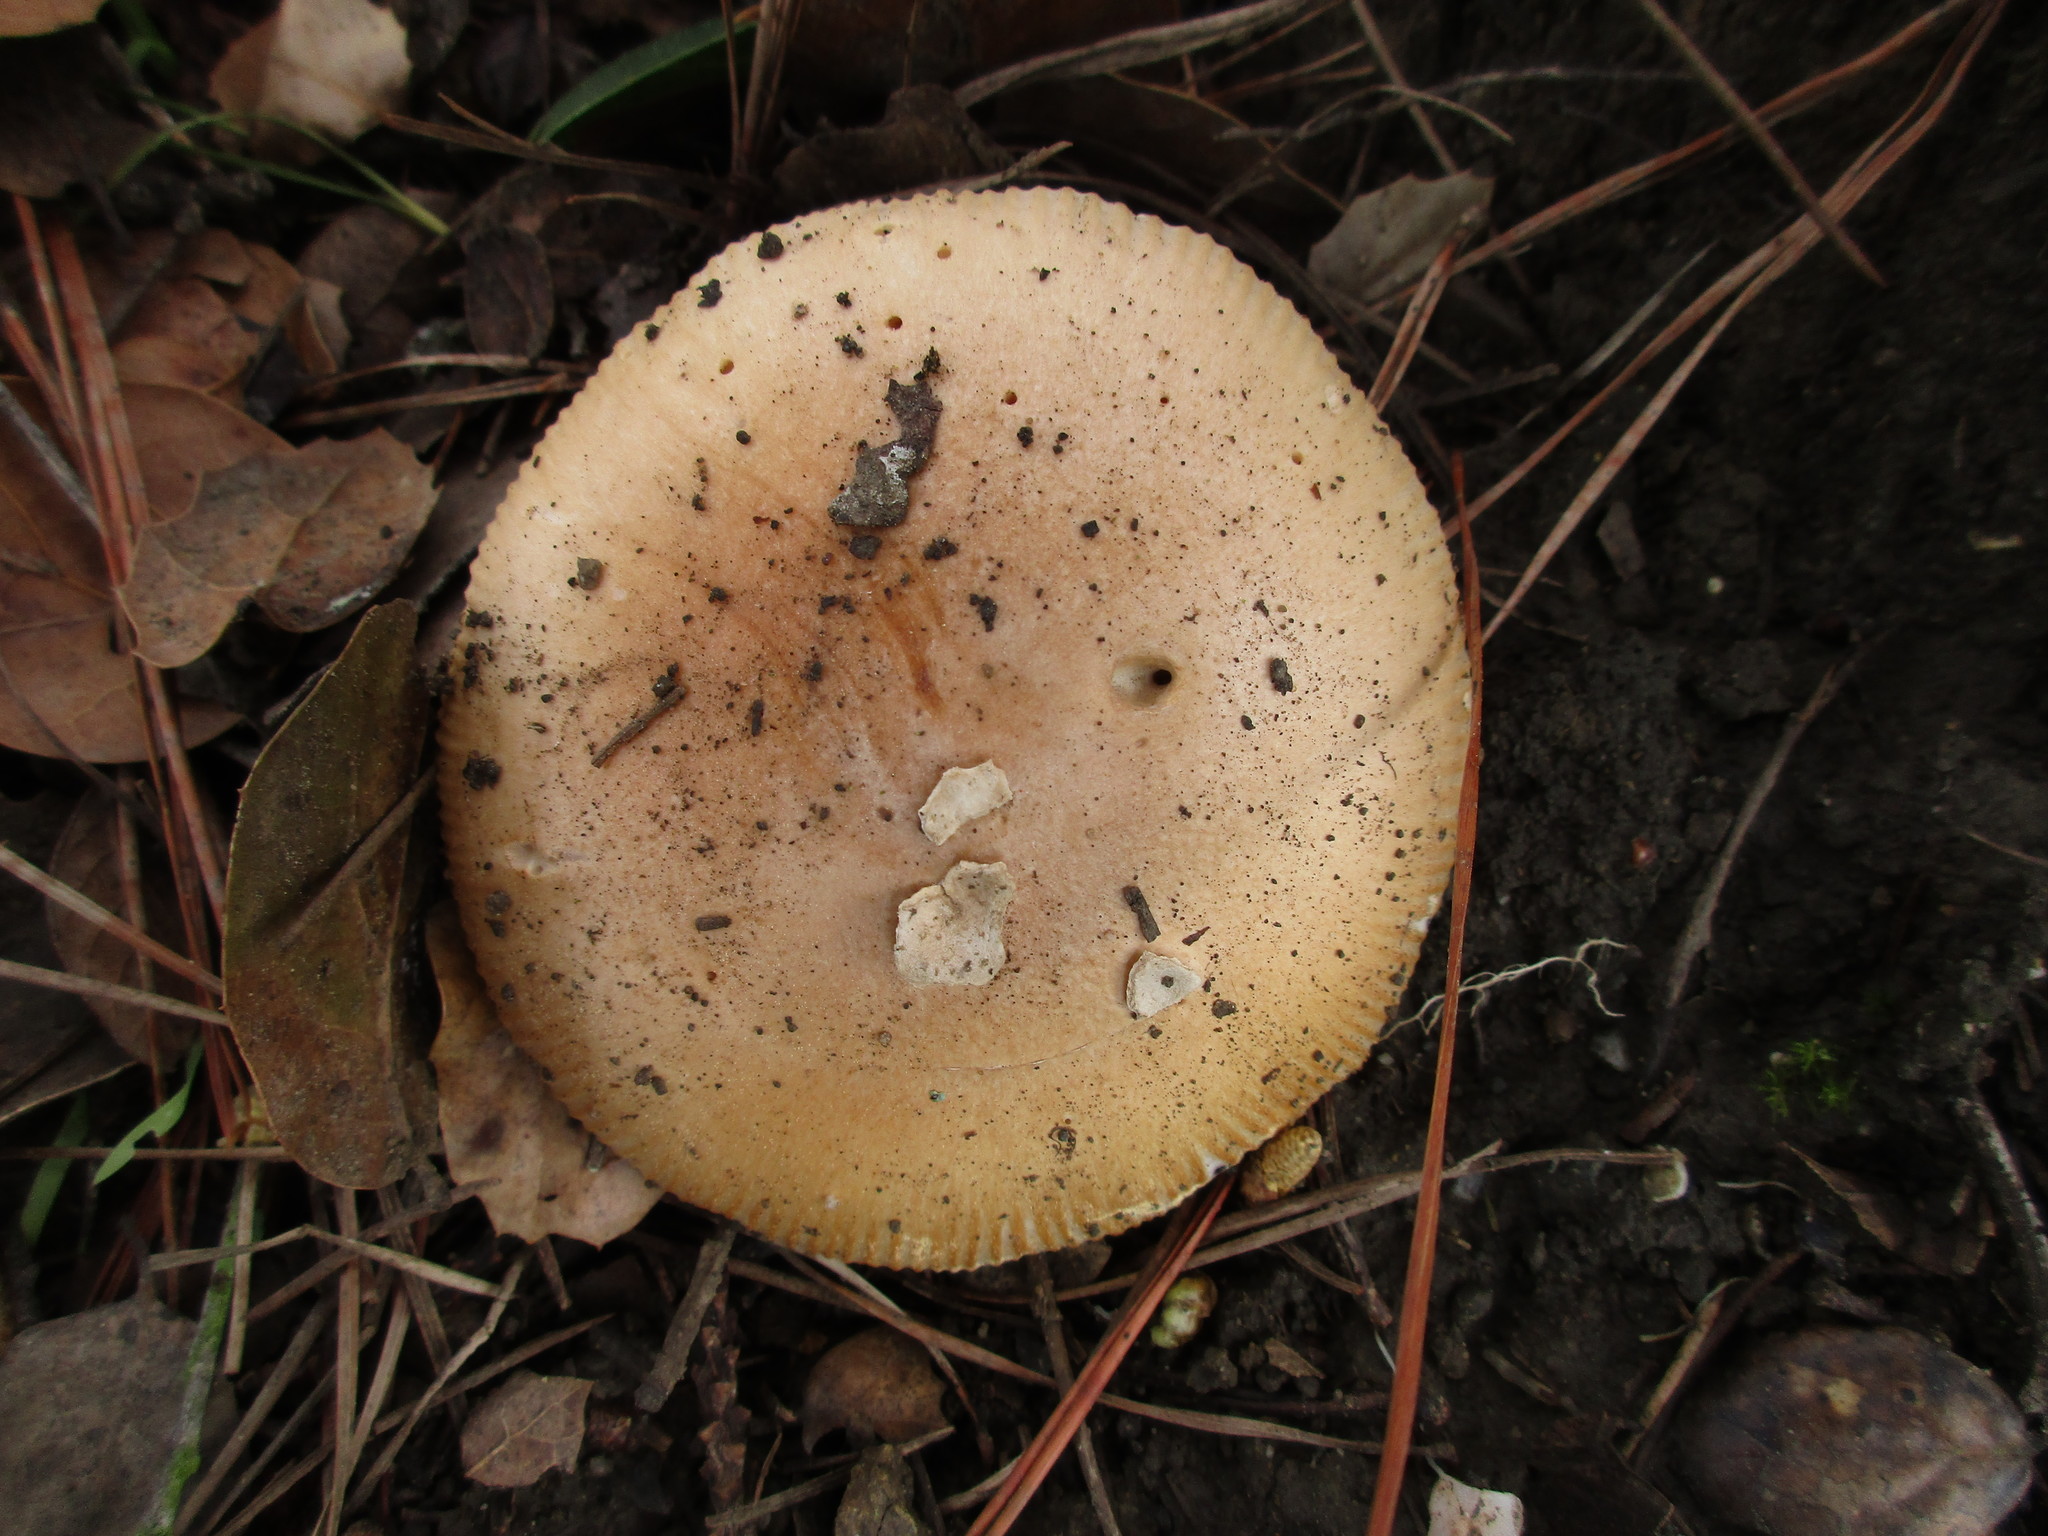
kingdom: Fungi
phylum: Basidiomycota
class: Agaricomycetes
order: Agaricales
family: Amanitaceae
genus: Amanita
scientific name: Amanita velosa
